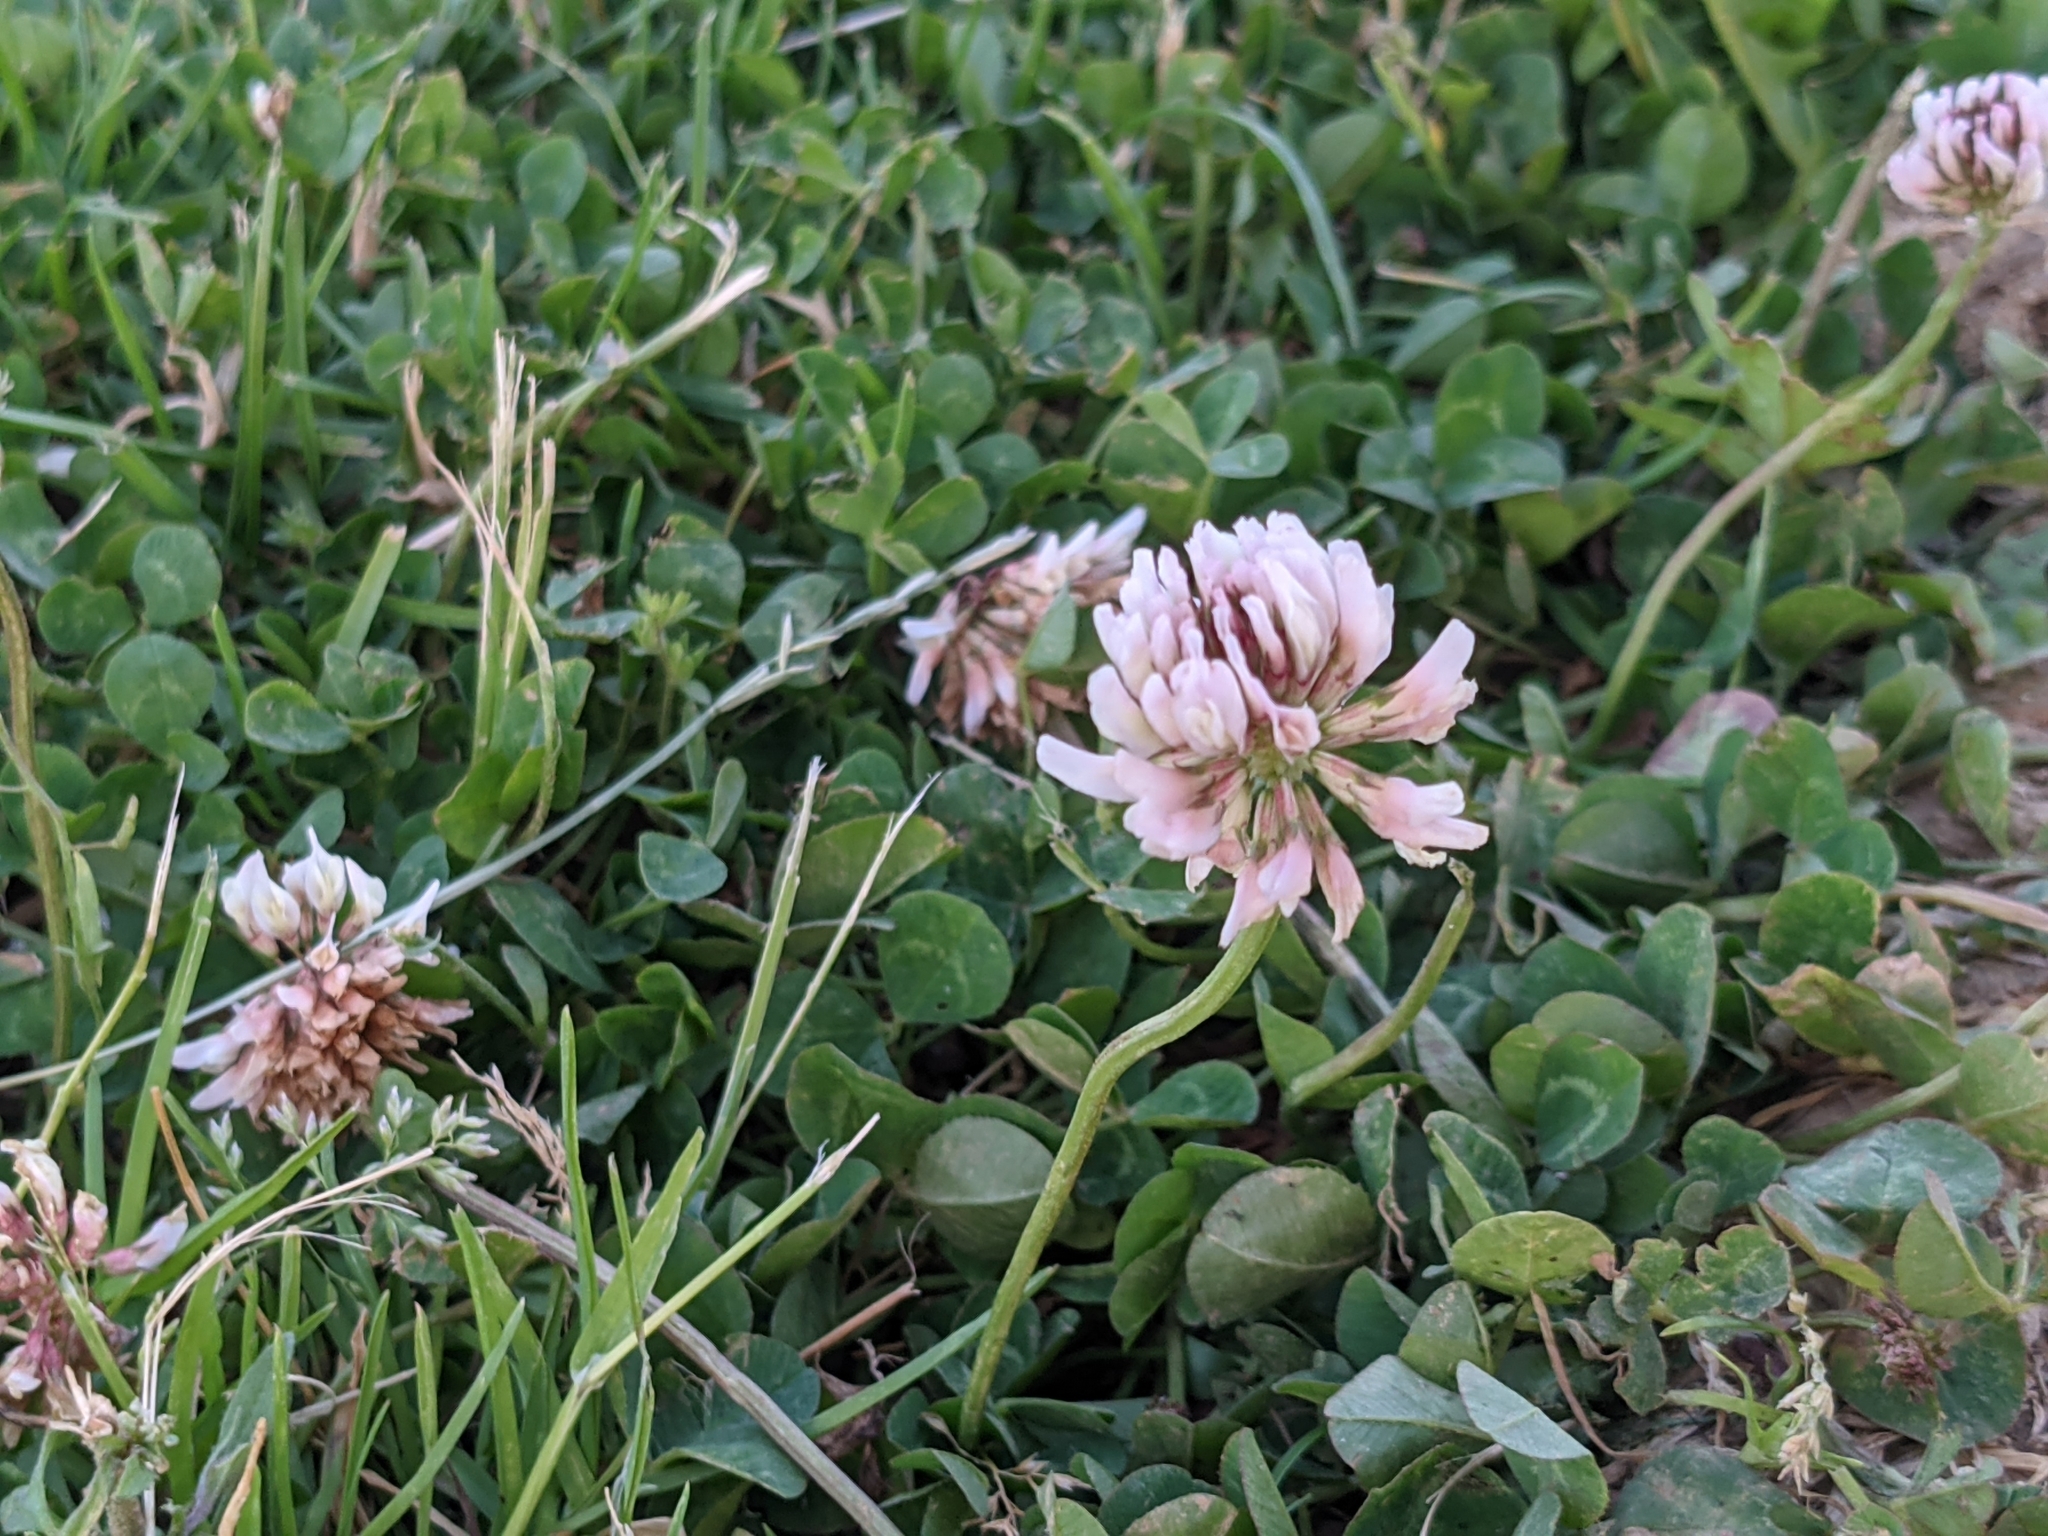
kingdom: Plantae
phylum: Tracheophyta
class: Magnoliopsida
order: Fabales
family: Fabaceae
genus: Trifolium
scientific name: Trifolium repens
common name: White clover
